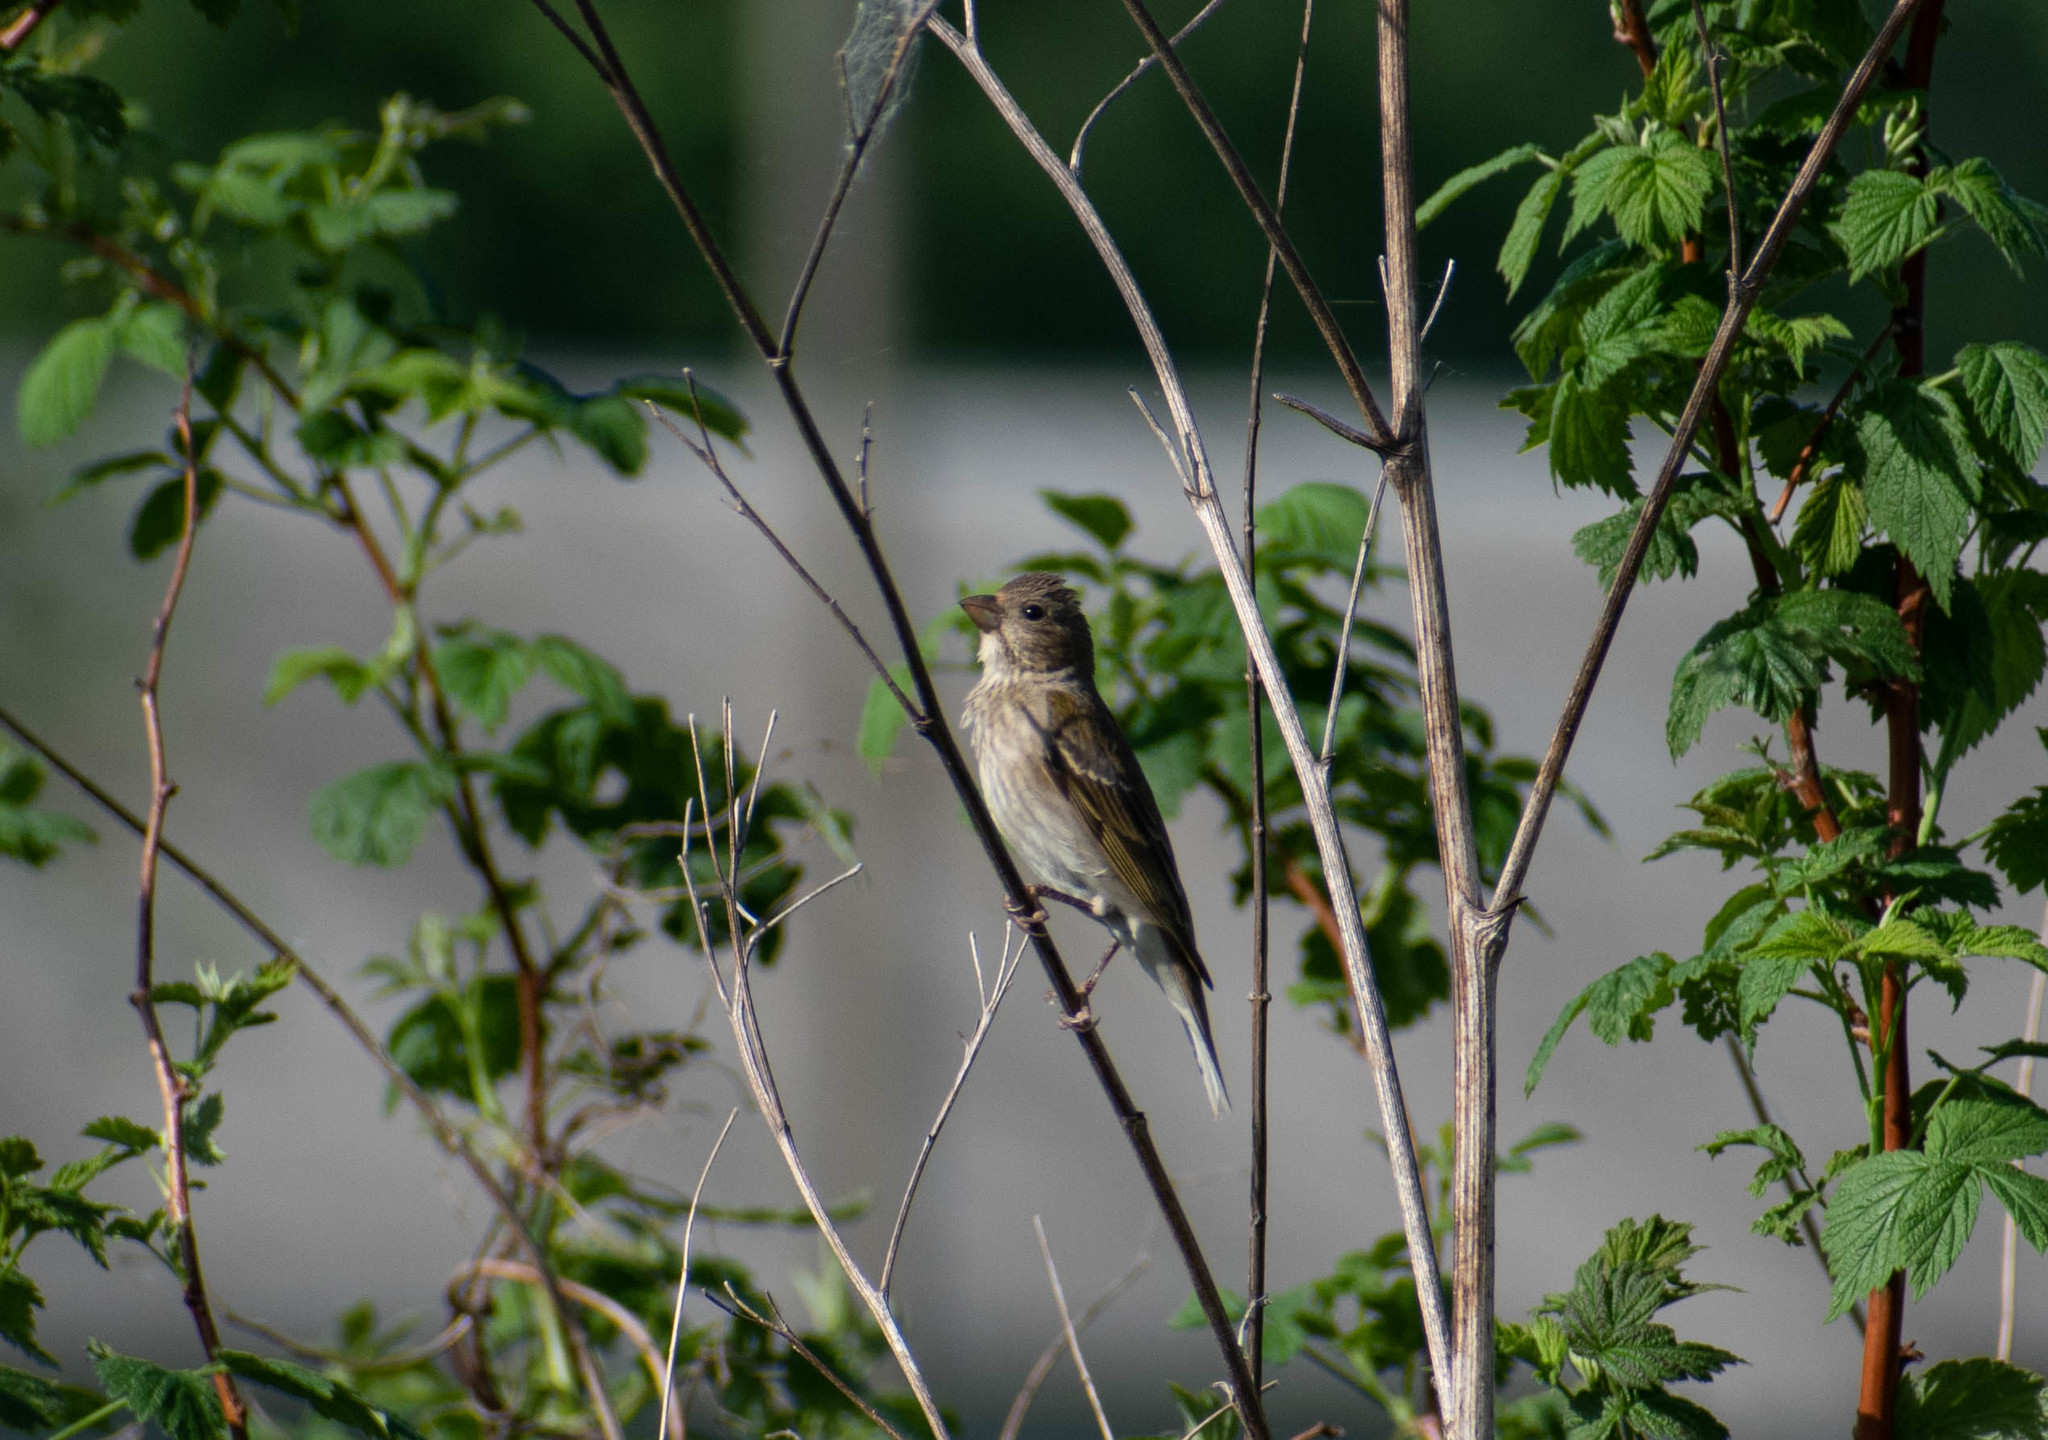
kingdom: Animalia
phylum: Chordata
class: Aves
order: Passeriformes
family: Fringillidae
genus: Carpodacus
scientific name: Carpodacus erythrinus
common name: Common rosefinch
